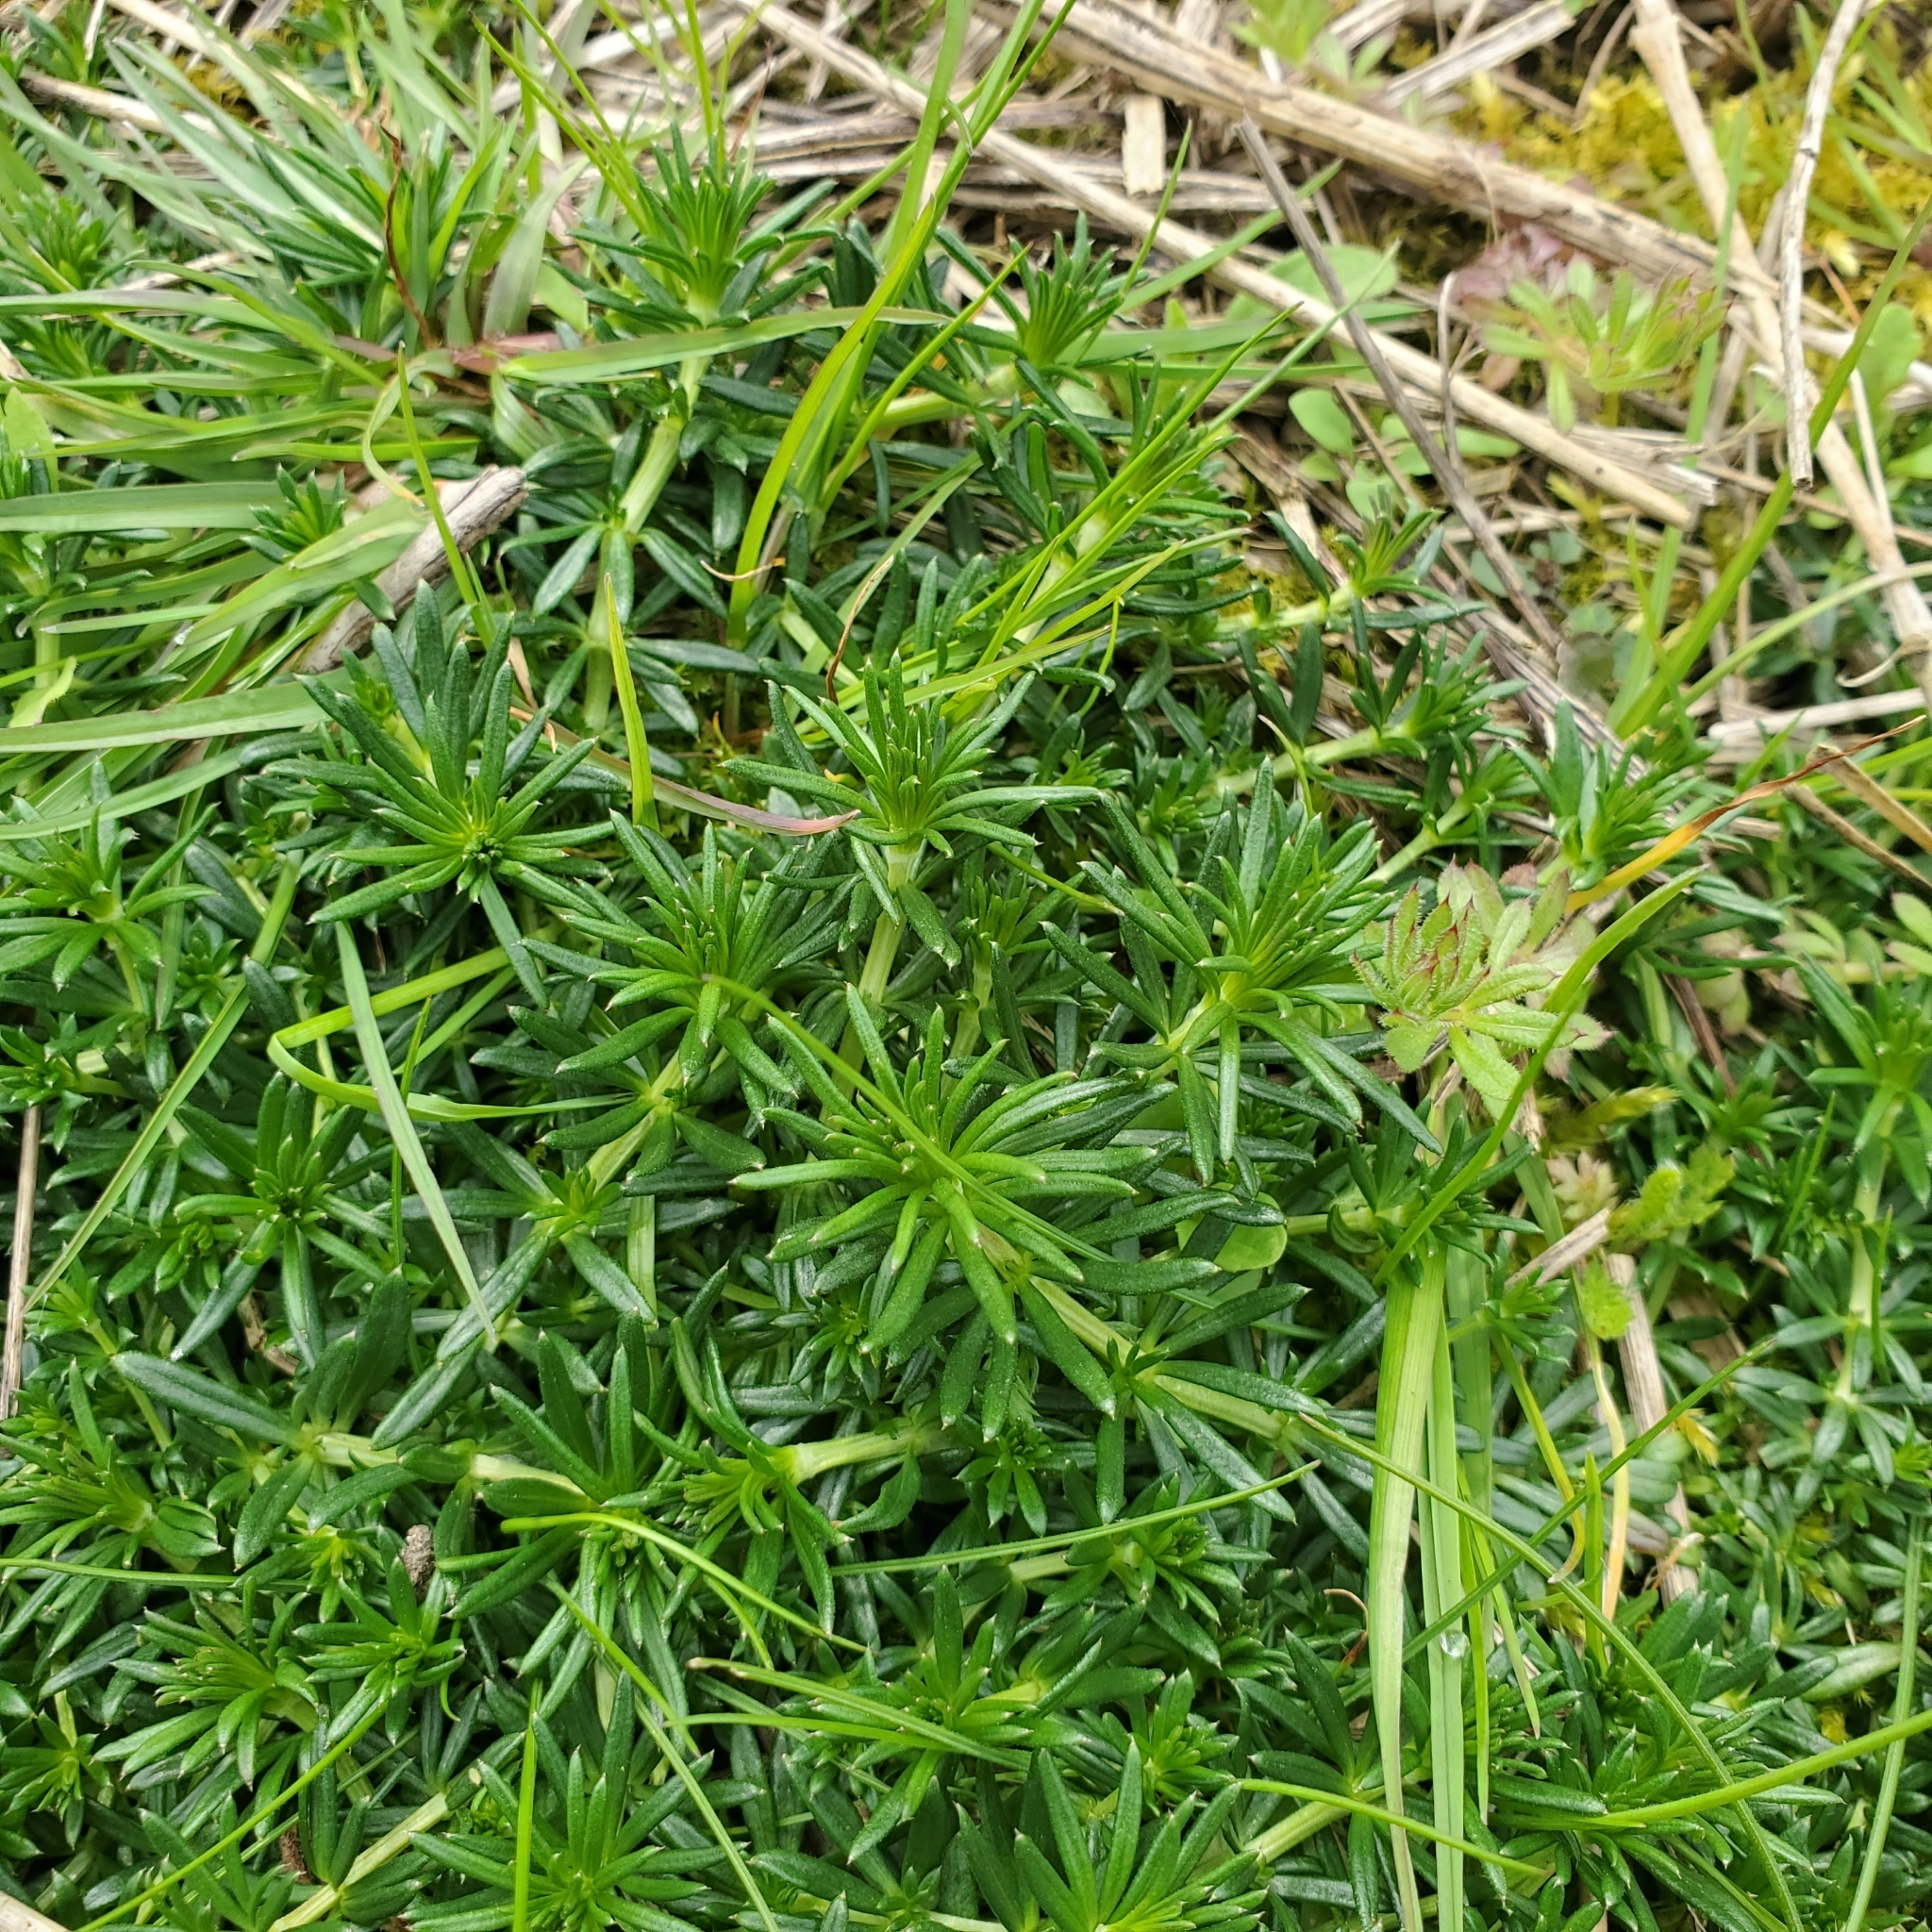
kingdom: Plantae
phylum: Tracheophyta
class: Magnoliopsida
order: Gentianales
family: Rubiaceae
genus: Galium
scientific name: Galium verum
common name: Lady's bedstraw
